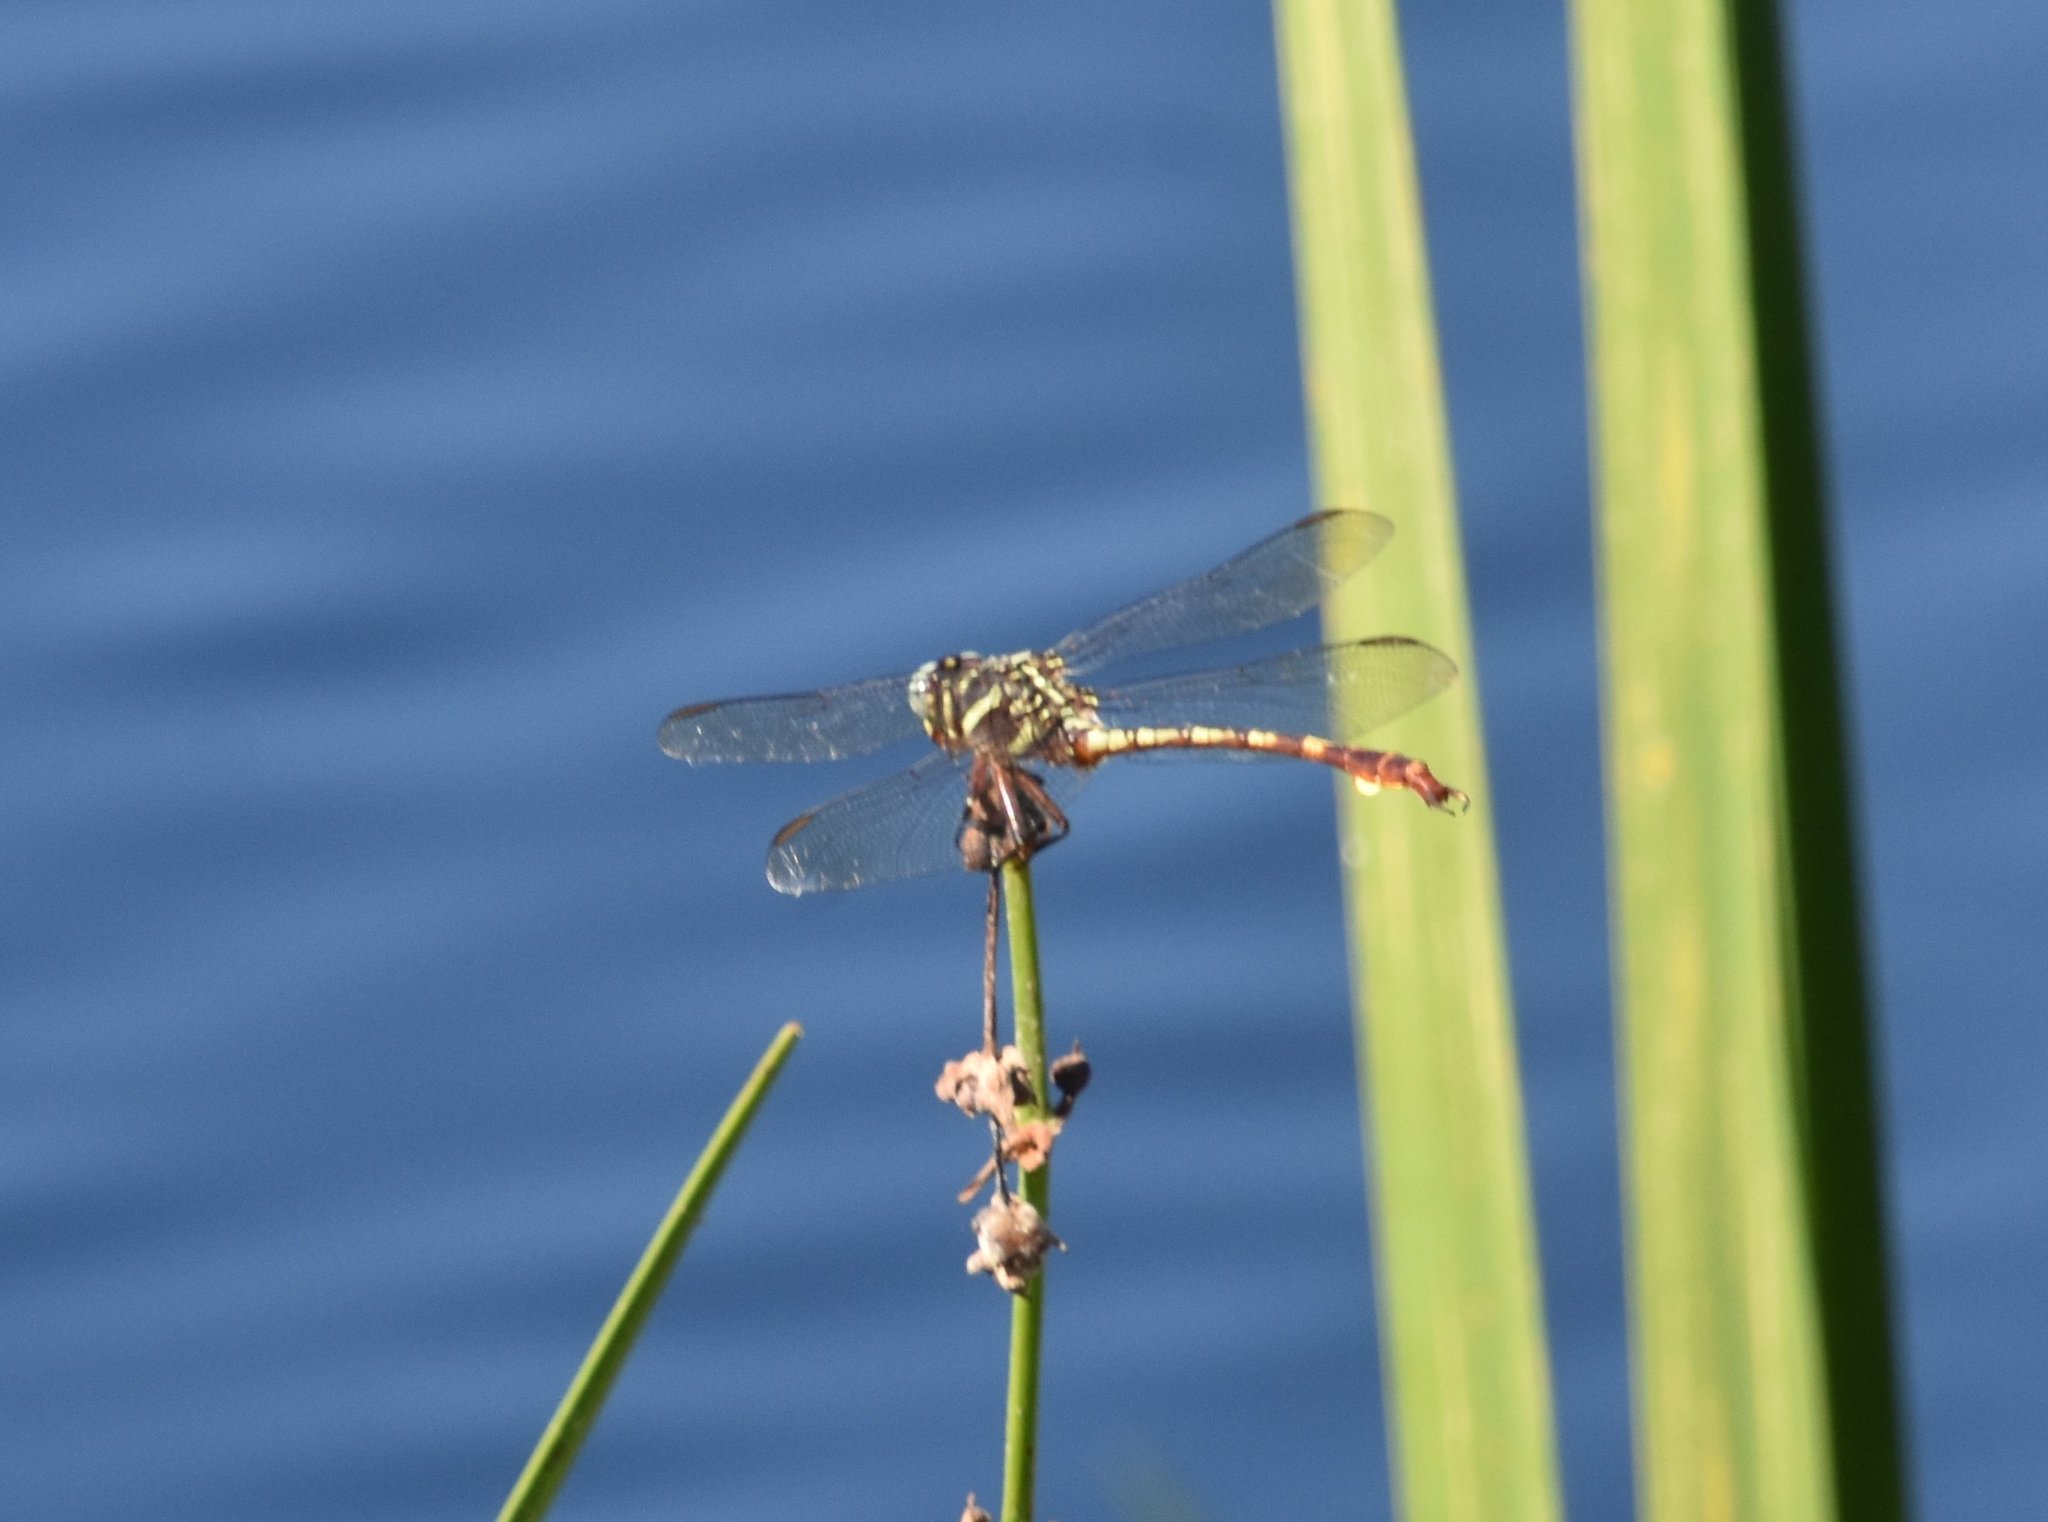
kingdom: Animalia
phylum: Arthropoda
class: Insecta
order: Odonata
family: Gomphidae
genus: Aphylla
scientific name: Aphylla williamsoni
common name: Two-striped forceptail
